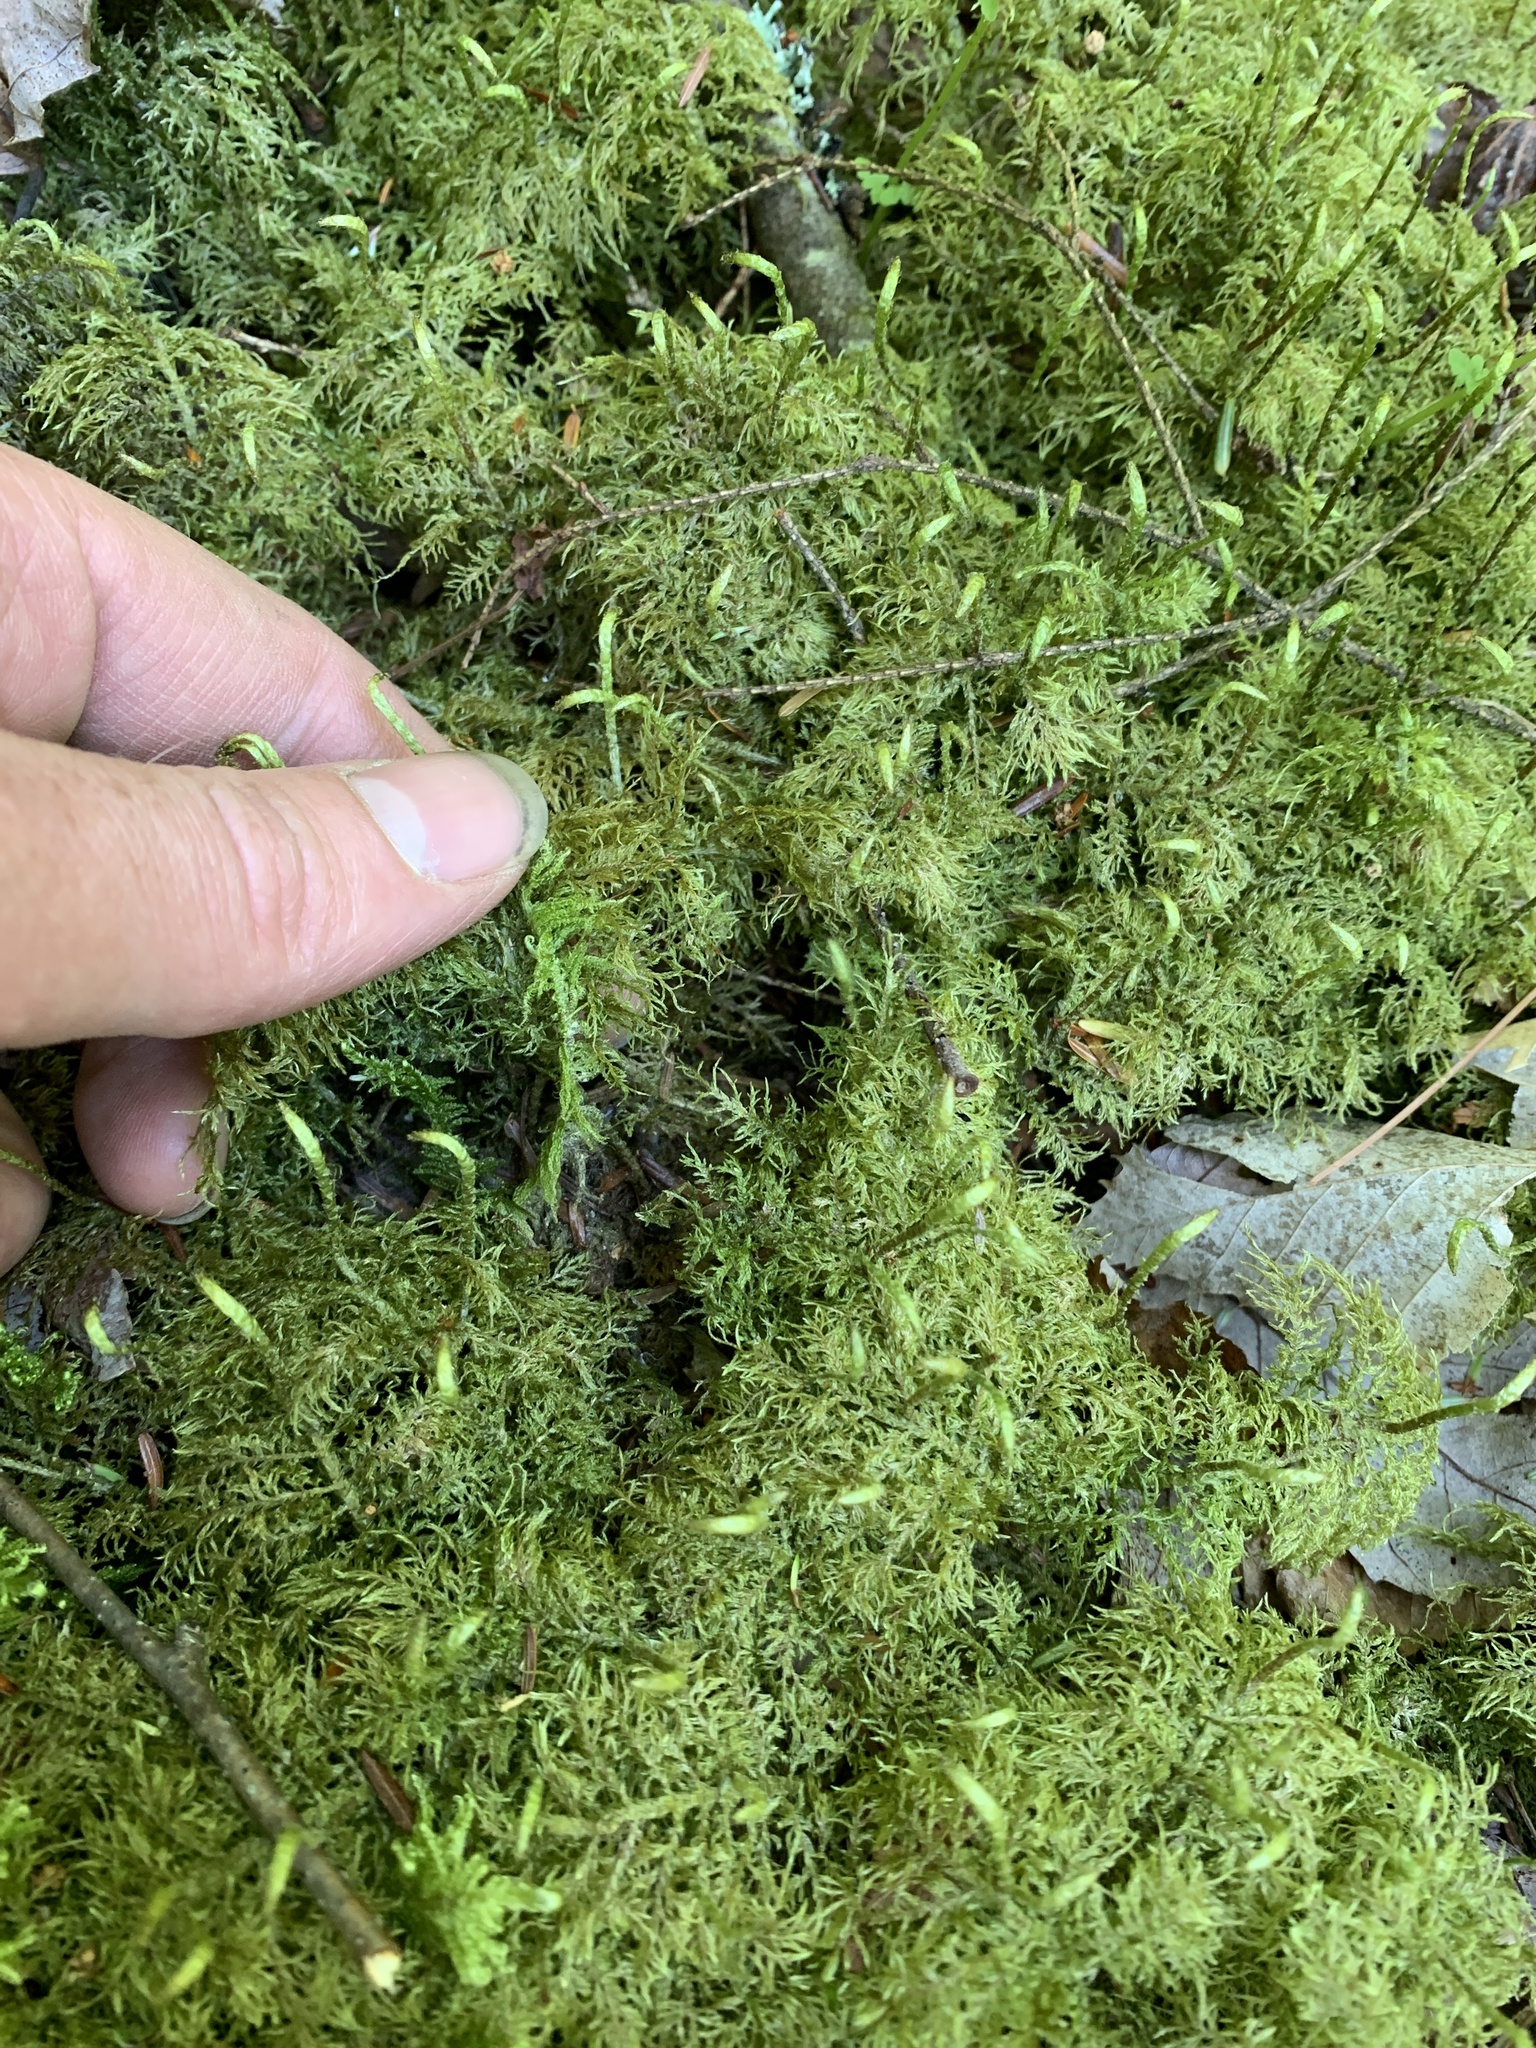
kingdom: Plantae
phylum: Bryophyta
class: Bryopsida
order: Hypnales
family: Hylocomiaceae
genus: Hylocomium
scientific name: Hylocomium splendens
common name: Stairstep moss
